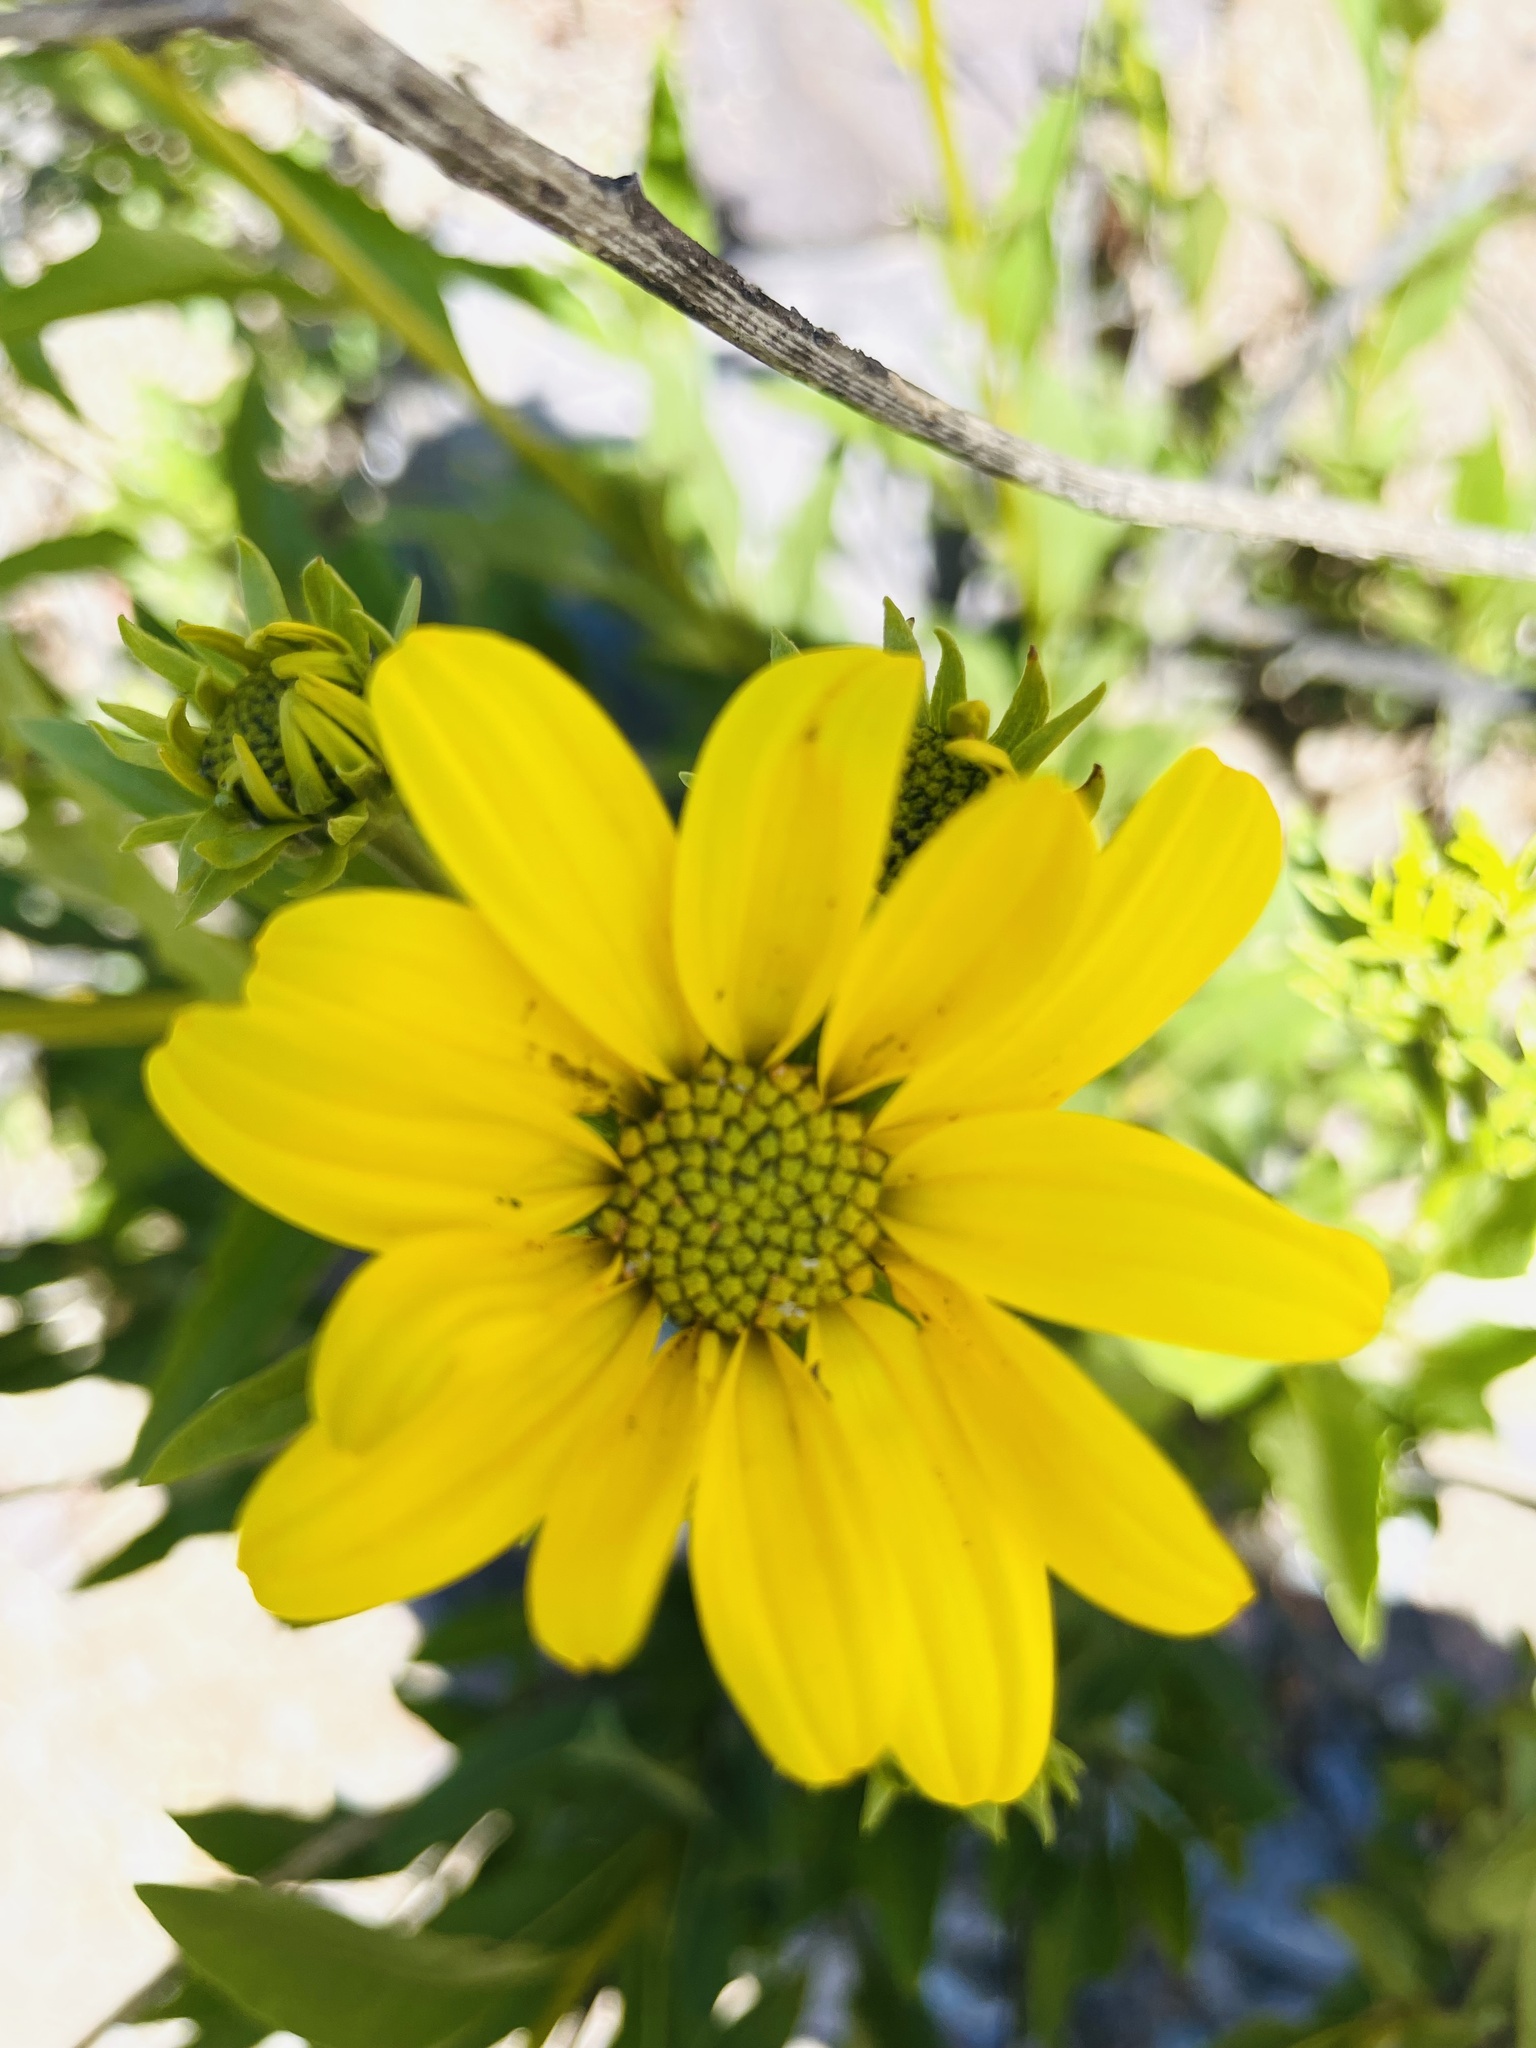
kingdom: Plantae
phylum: Tracheophyta
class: Magnoliopsida
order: Asterales
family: Asteraceae
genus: Flourensia
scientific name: Flourensia thurifera
